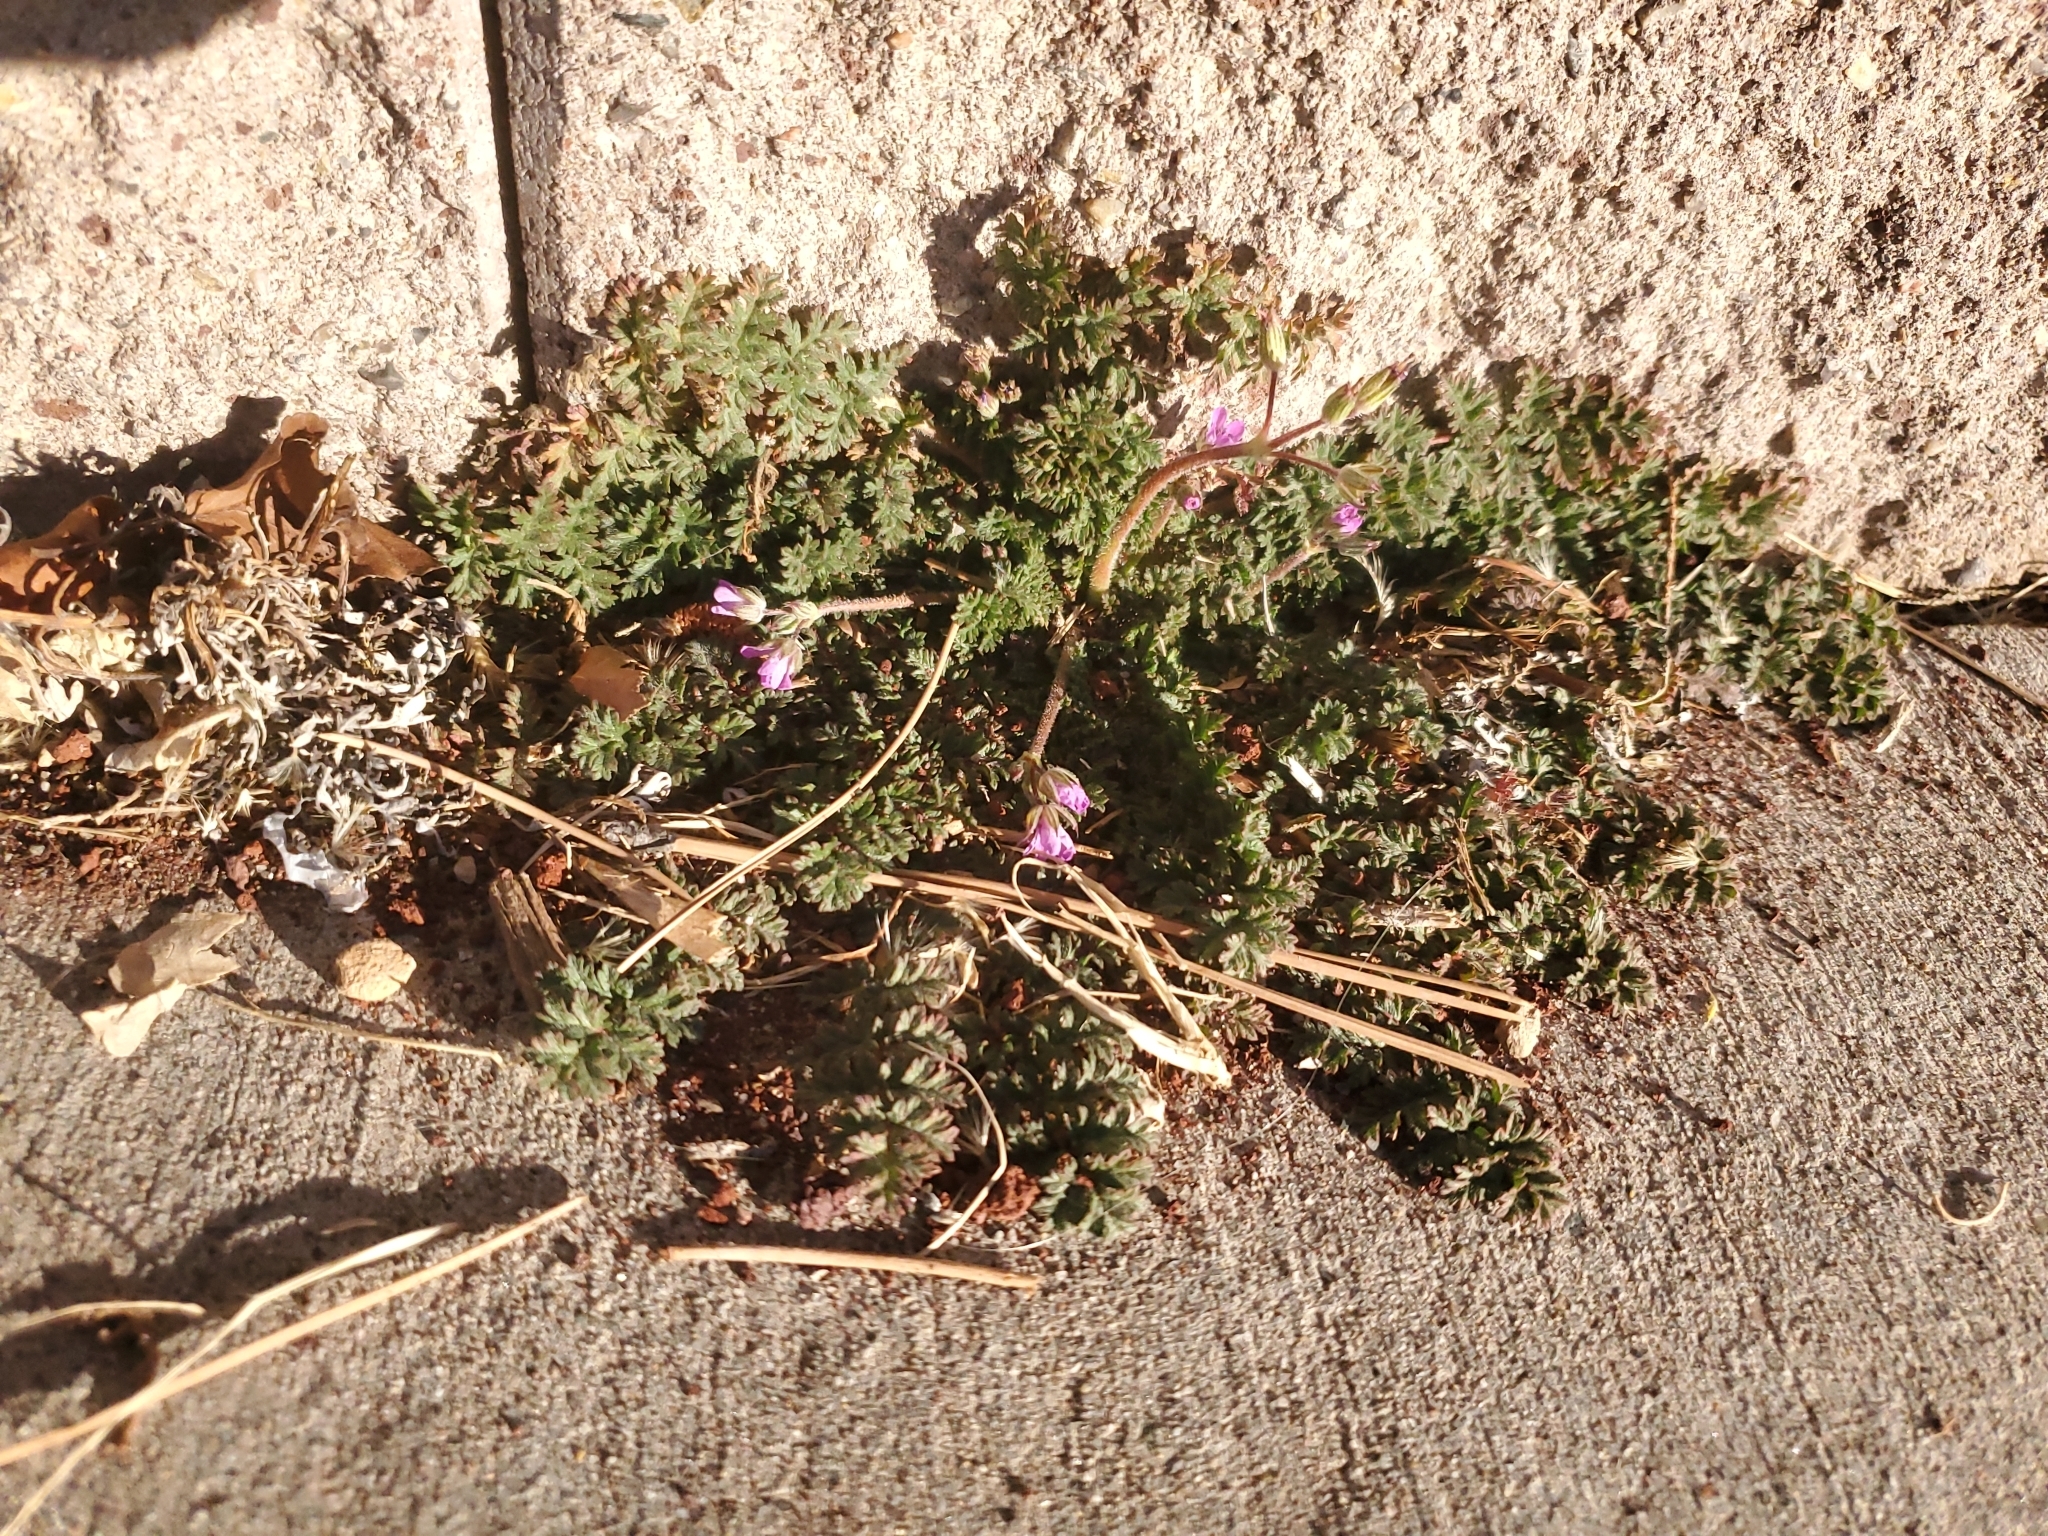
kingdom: Plantae
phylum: Tracheophyta
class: Magnoliopsida
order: Geraniales
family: Geraniaceae
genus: Erodium
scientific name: Erodium cicutarium
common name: Common stork's-bill
